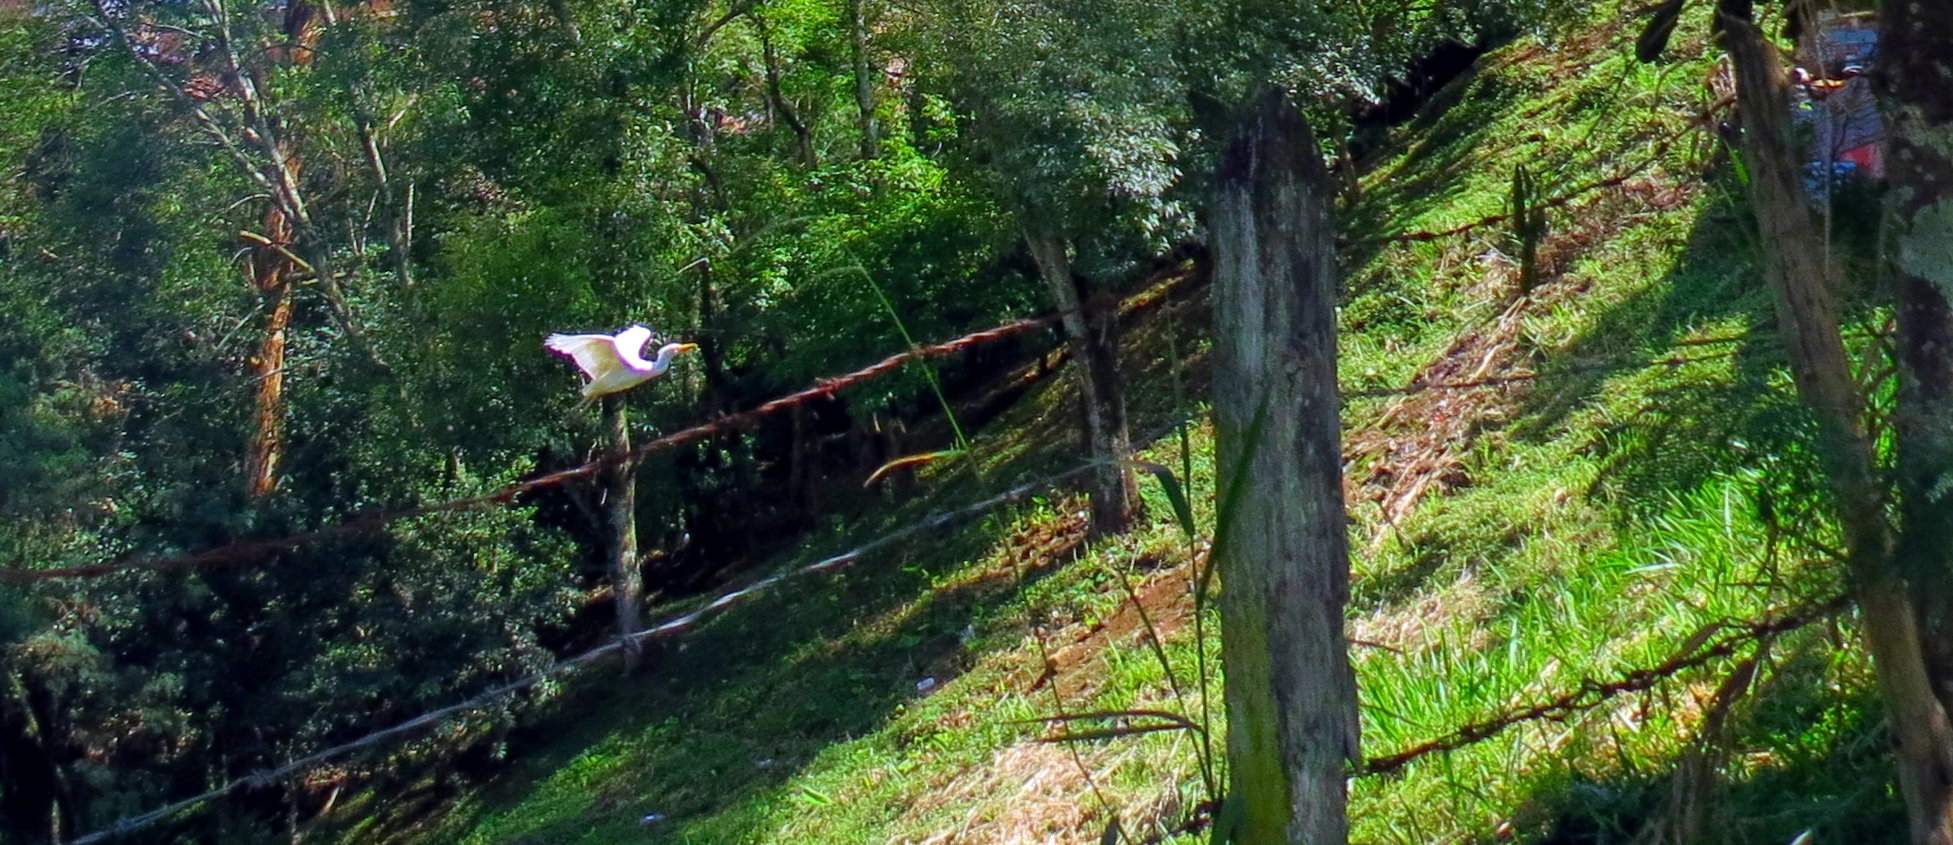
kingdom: Animalia
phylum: Chordata
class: Aves
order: Pelecaniformes
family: Ardeidae
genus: Bubulcus
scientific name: Bubulcus ibis
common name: Cattle egret
